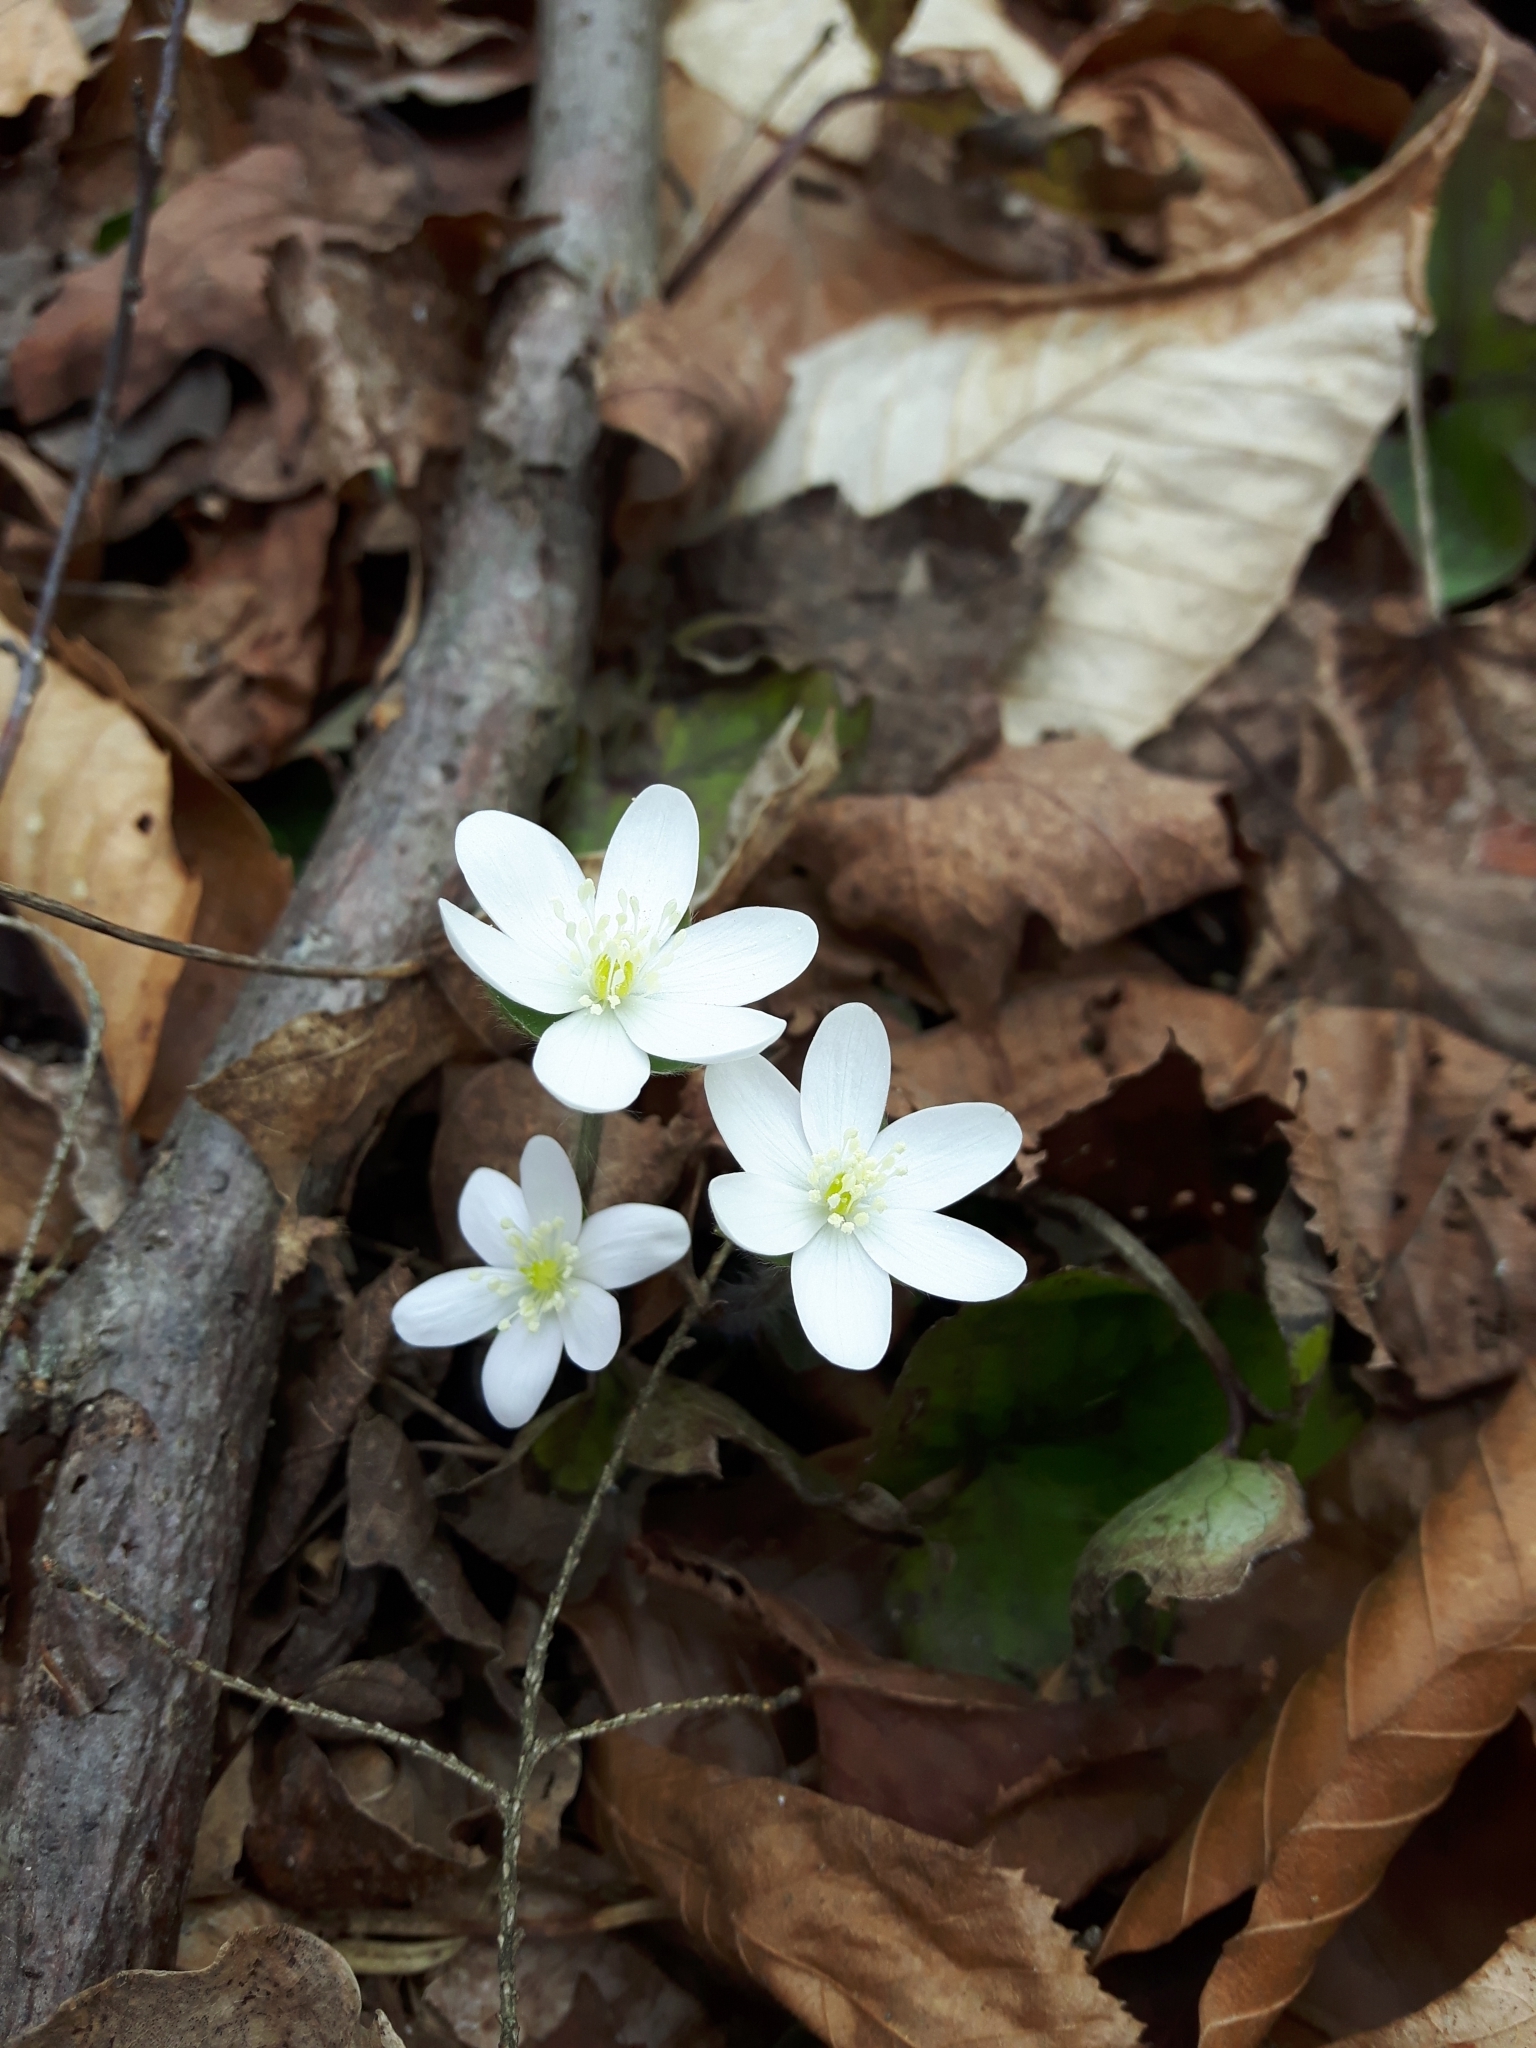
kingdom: Plantae
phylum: Tracheophyta
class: Magnoliopsida
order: Ranunculales
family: Ranunculaceae
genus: Hepatica
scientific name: Hepatica acutiloba
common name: Sharp-lobed hepatica
